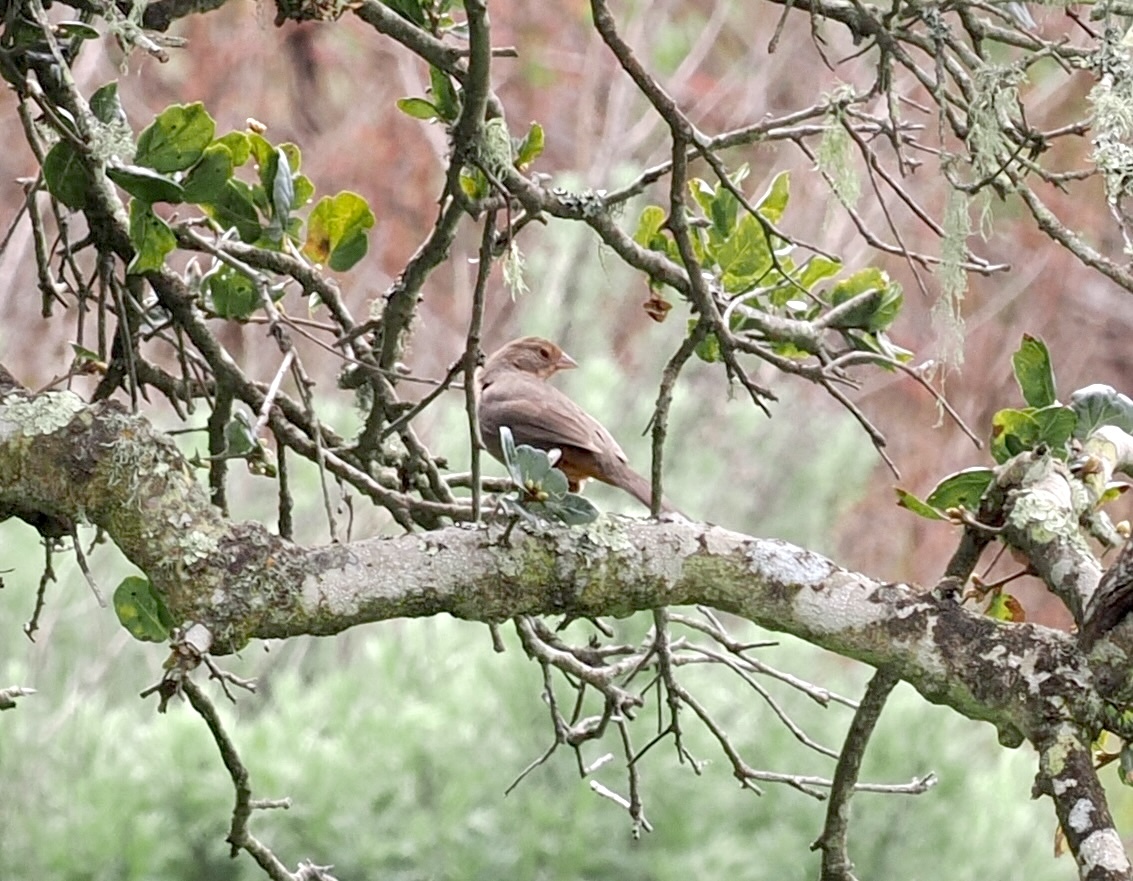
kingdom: Animalia
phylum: Chordata
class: Aves
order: Passeriformes
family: Passerellidae
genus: Melozone
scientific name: Melozone crissalis
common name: California towhee
